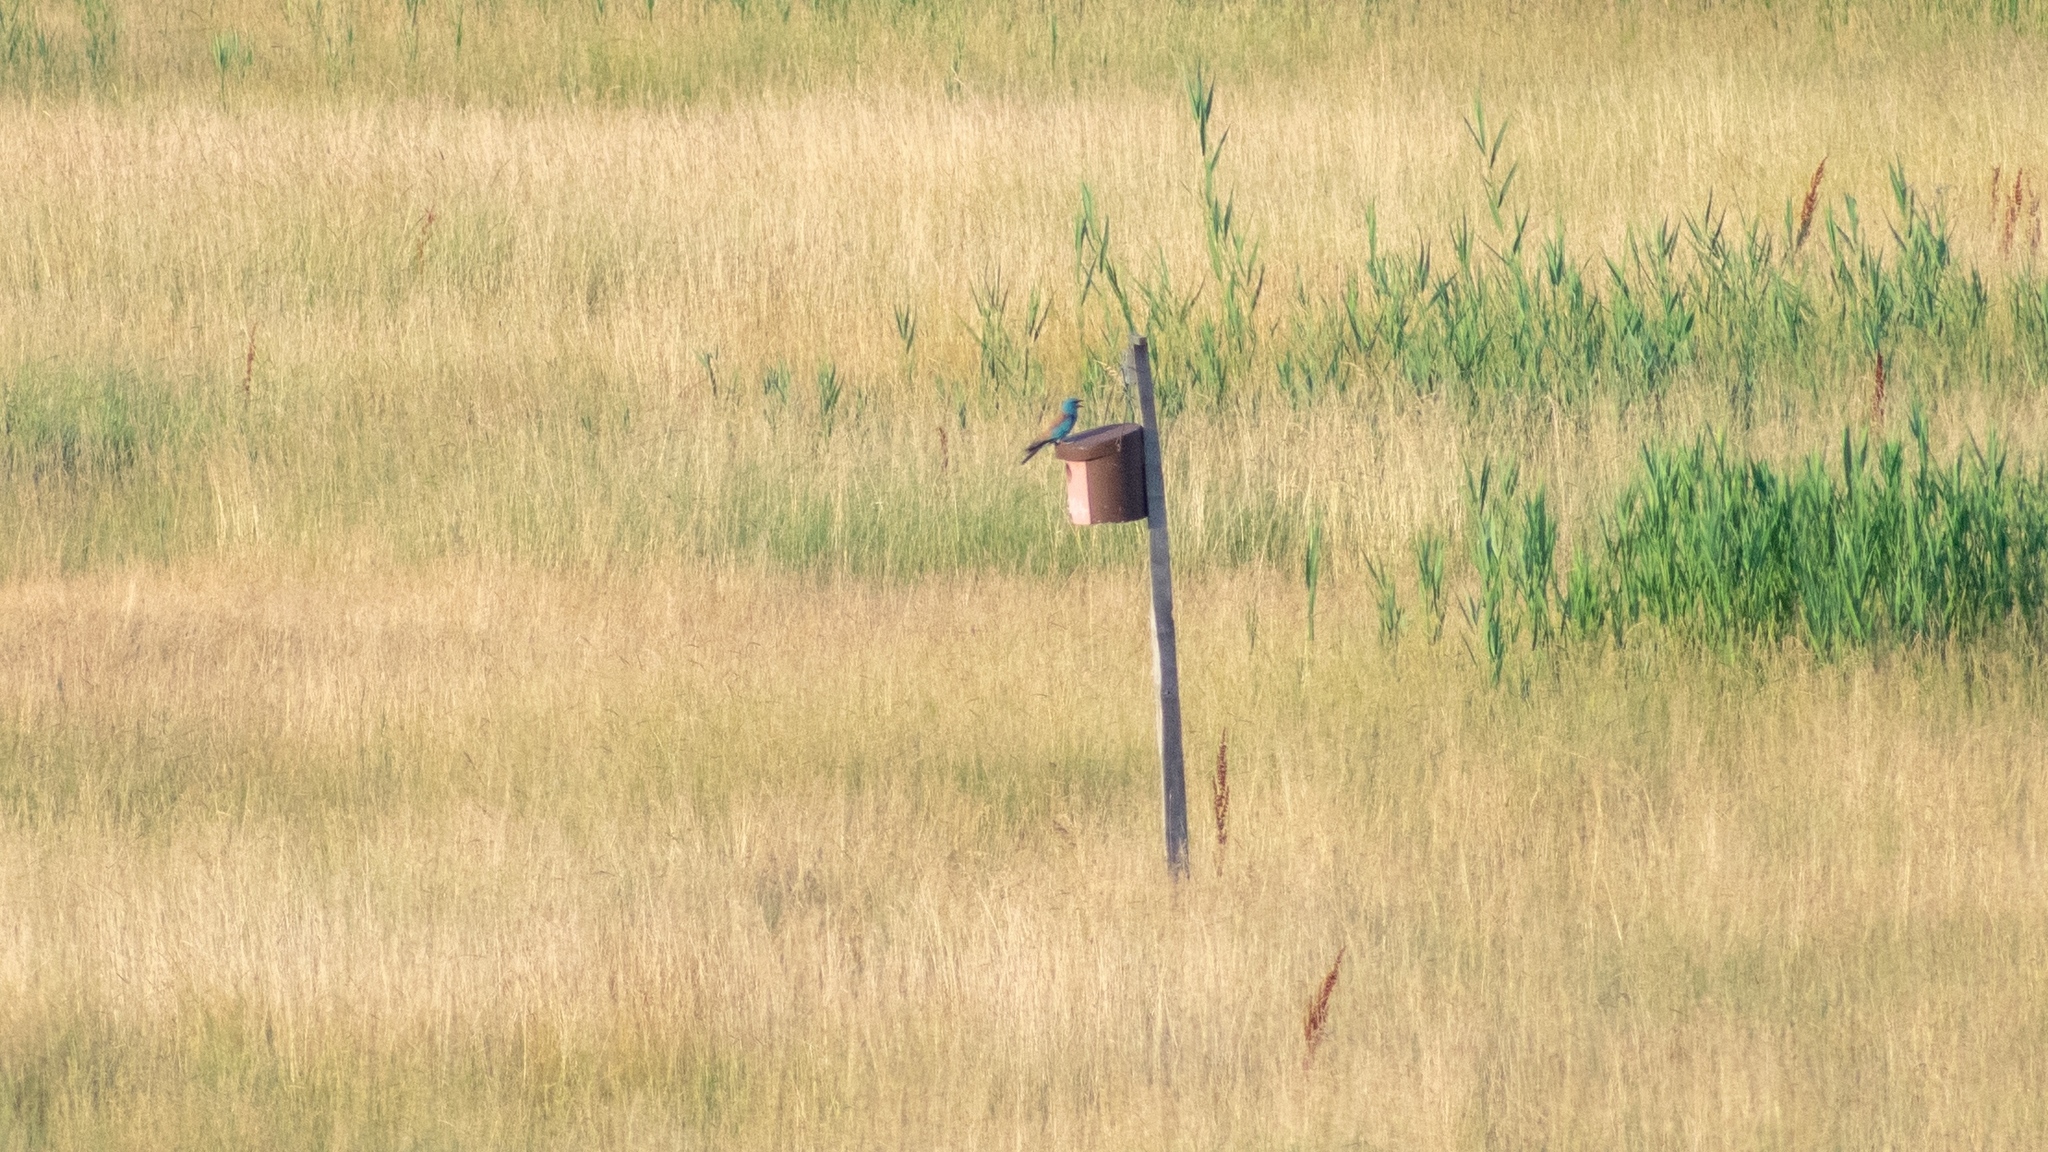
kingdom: Animalia
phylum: Chordata
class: Aves
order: Coraciiformes
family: Coraciidae
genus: Coracias
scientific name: Coracias garrulus
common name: European roller
